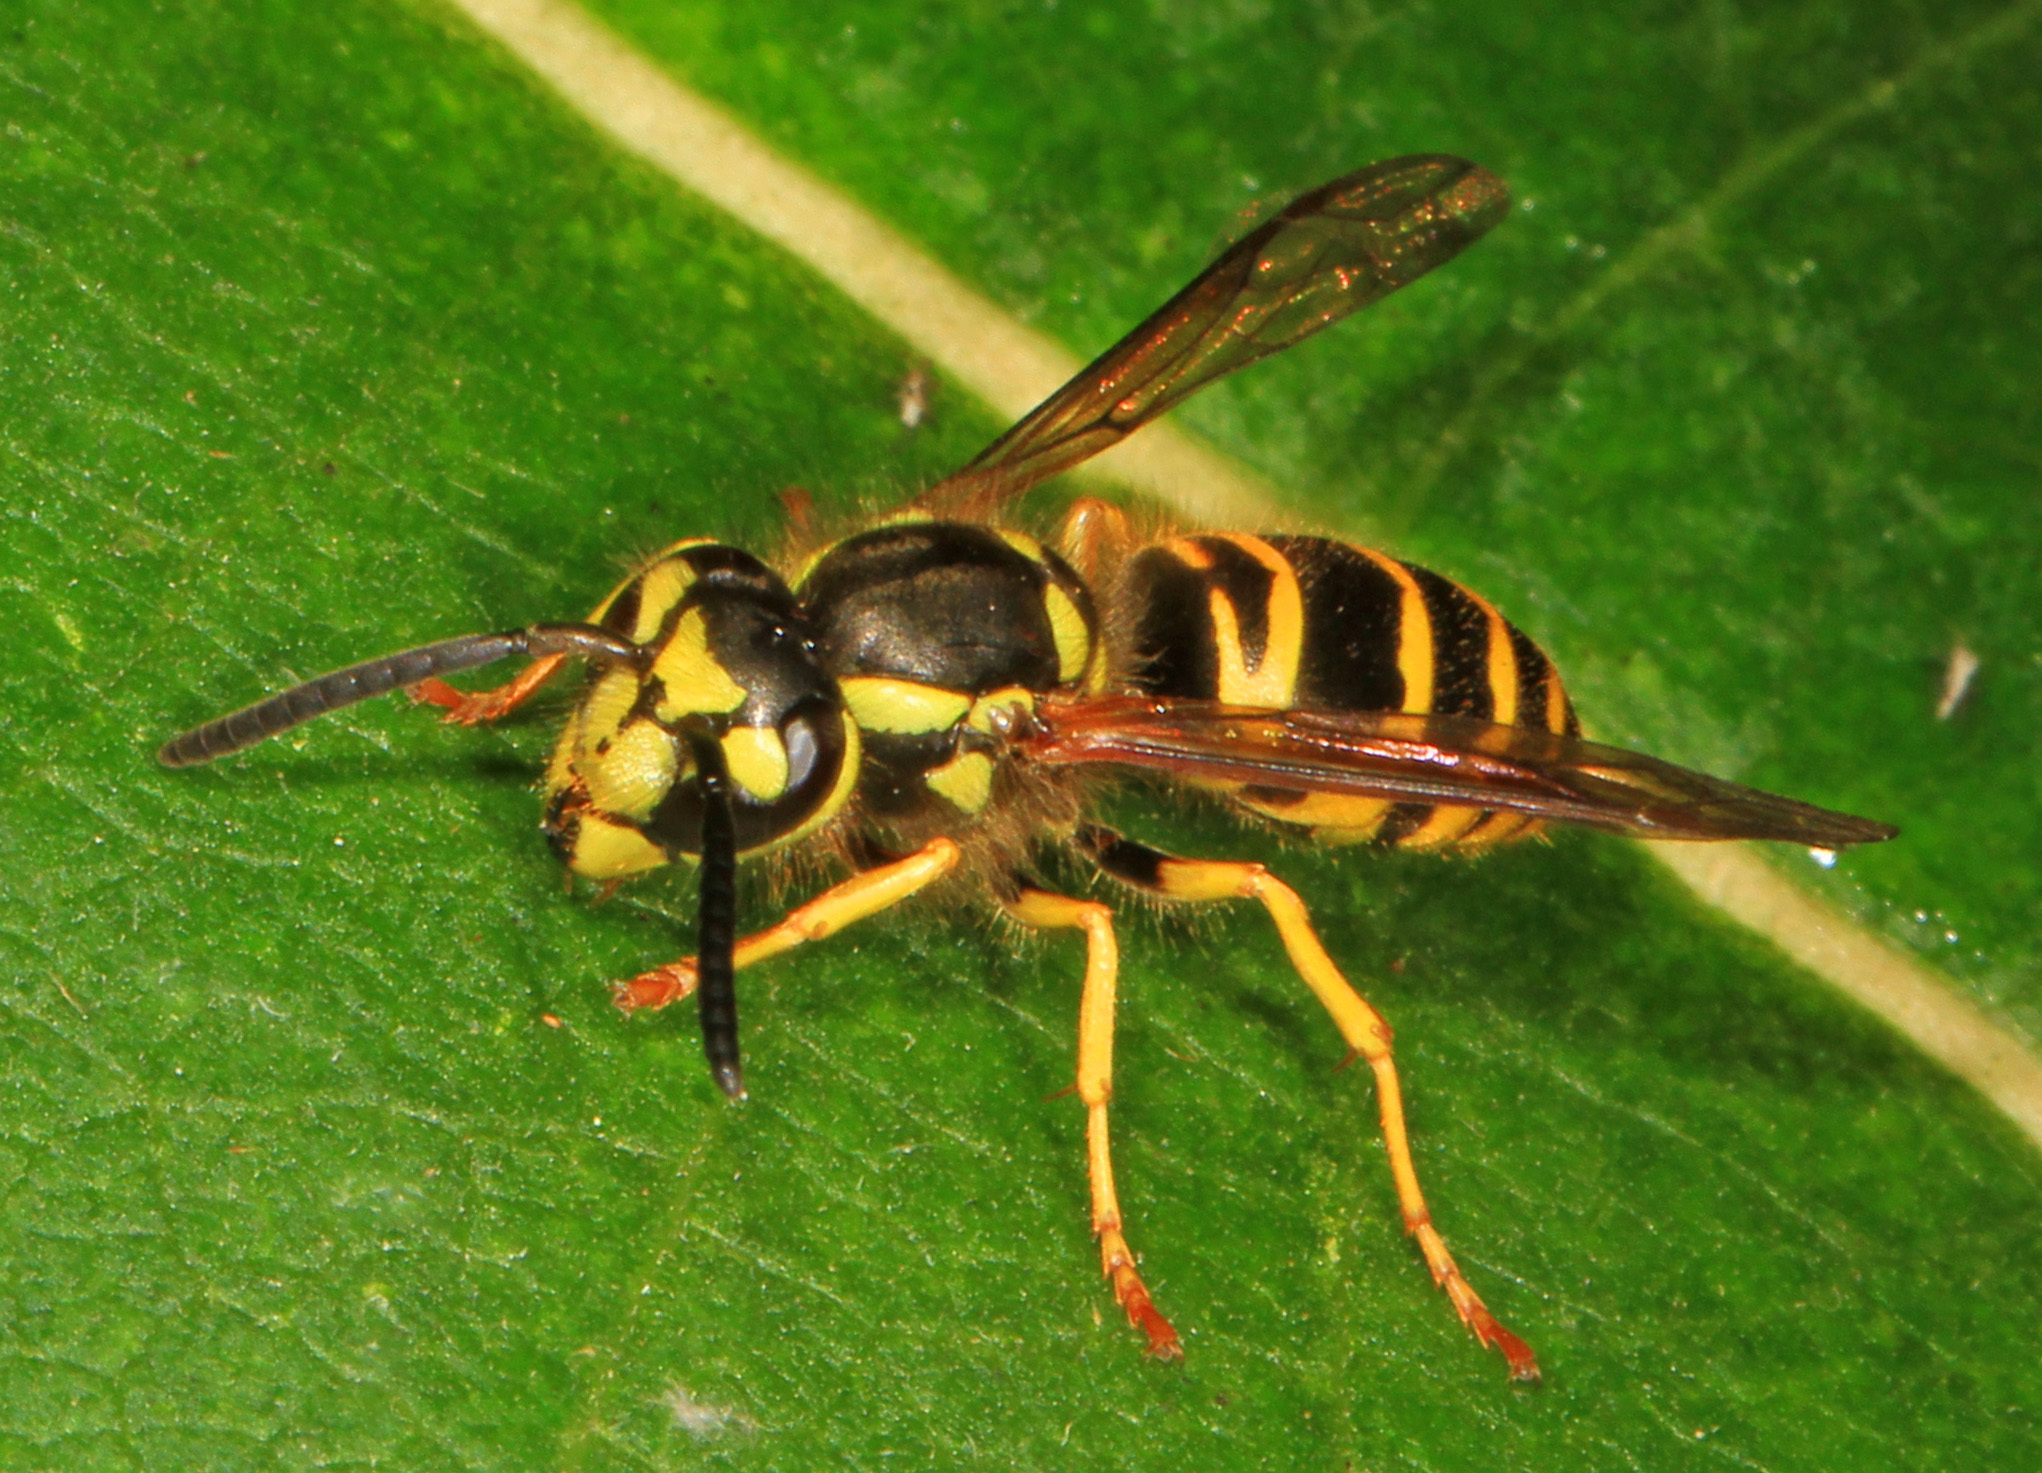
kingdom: Animalia
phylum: Arthropoda
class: Insecta
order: Hymenoptera
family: Vespidae
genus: Vespula
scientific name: Vespula maculifrons
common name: Eastern yellowjacket
